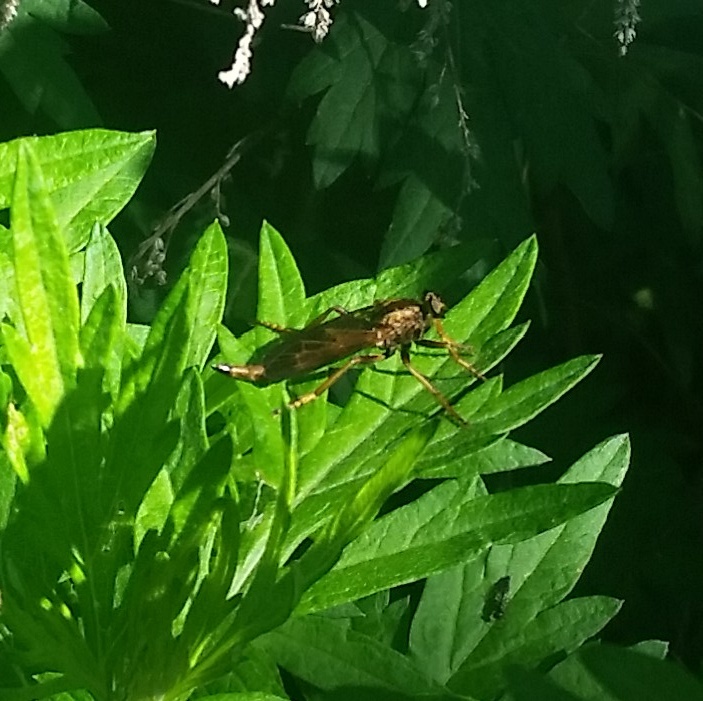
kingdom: Animalia
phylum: Arthropoda
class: Insecta
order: Diptera
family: Asilidae
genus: Asilus
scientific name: Asilus sericeus
